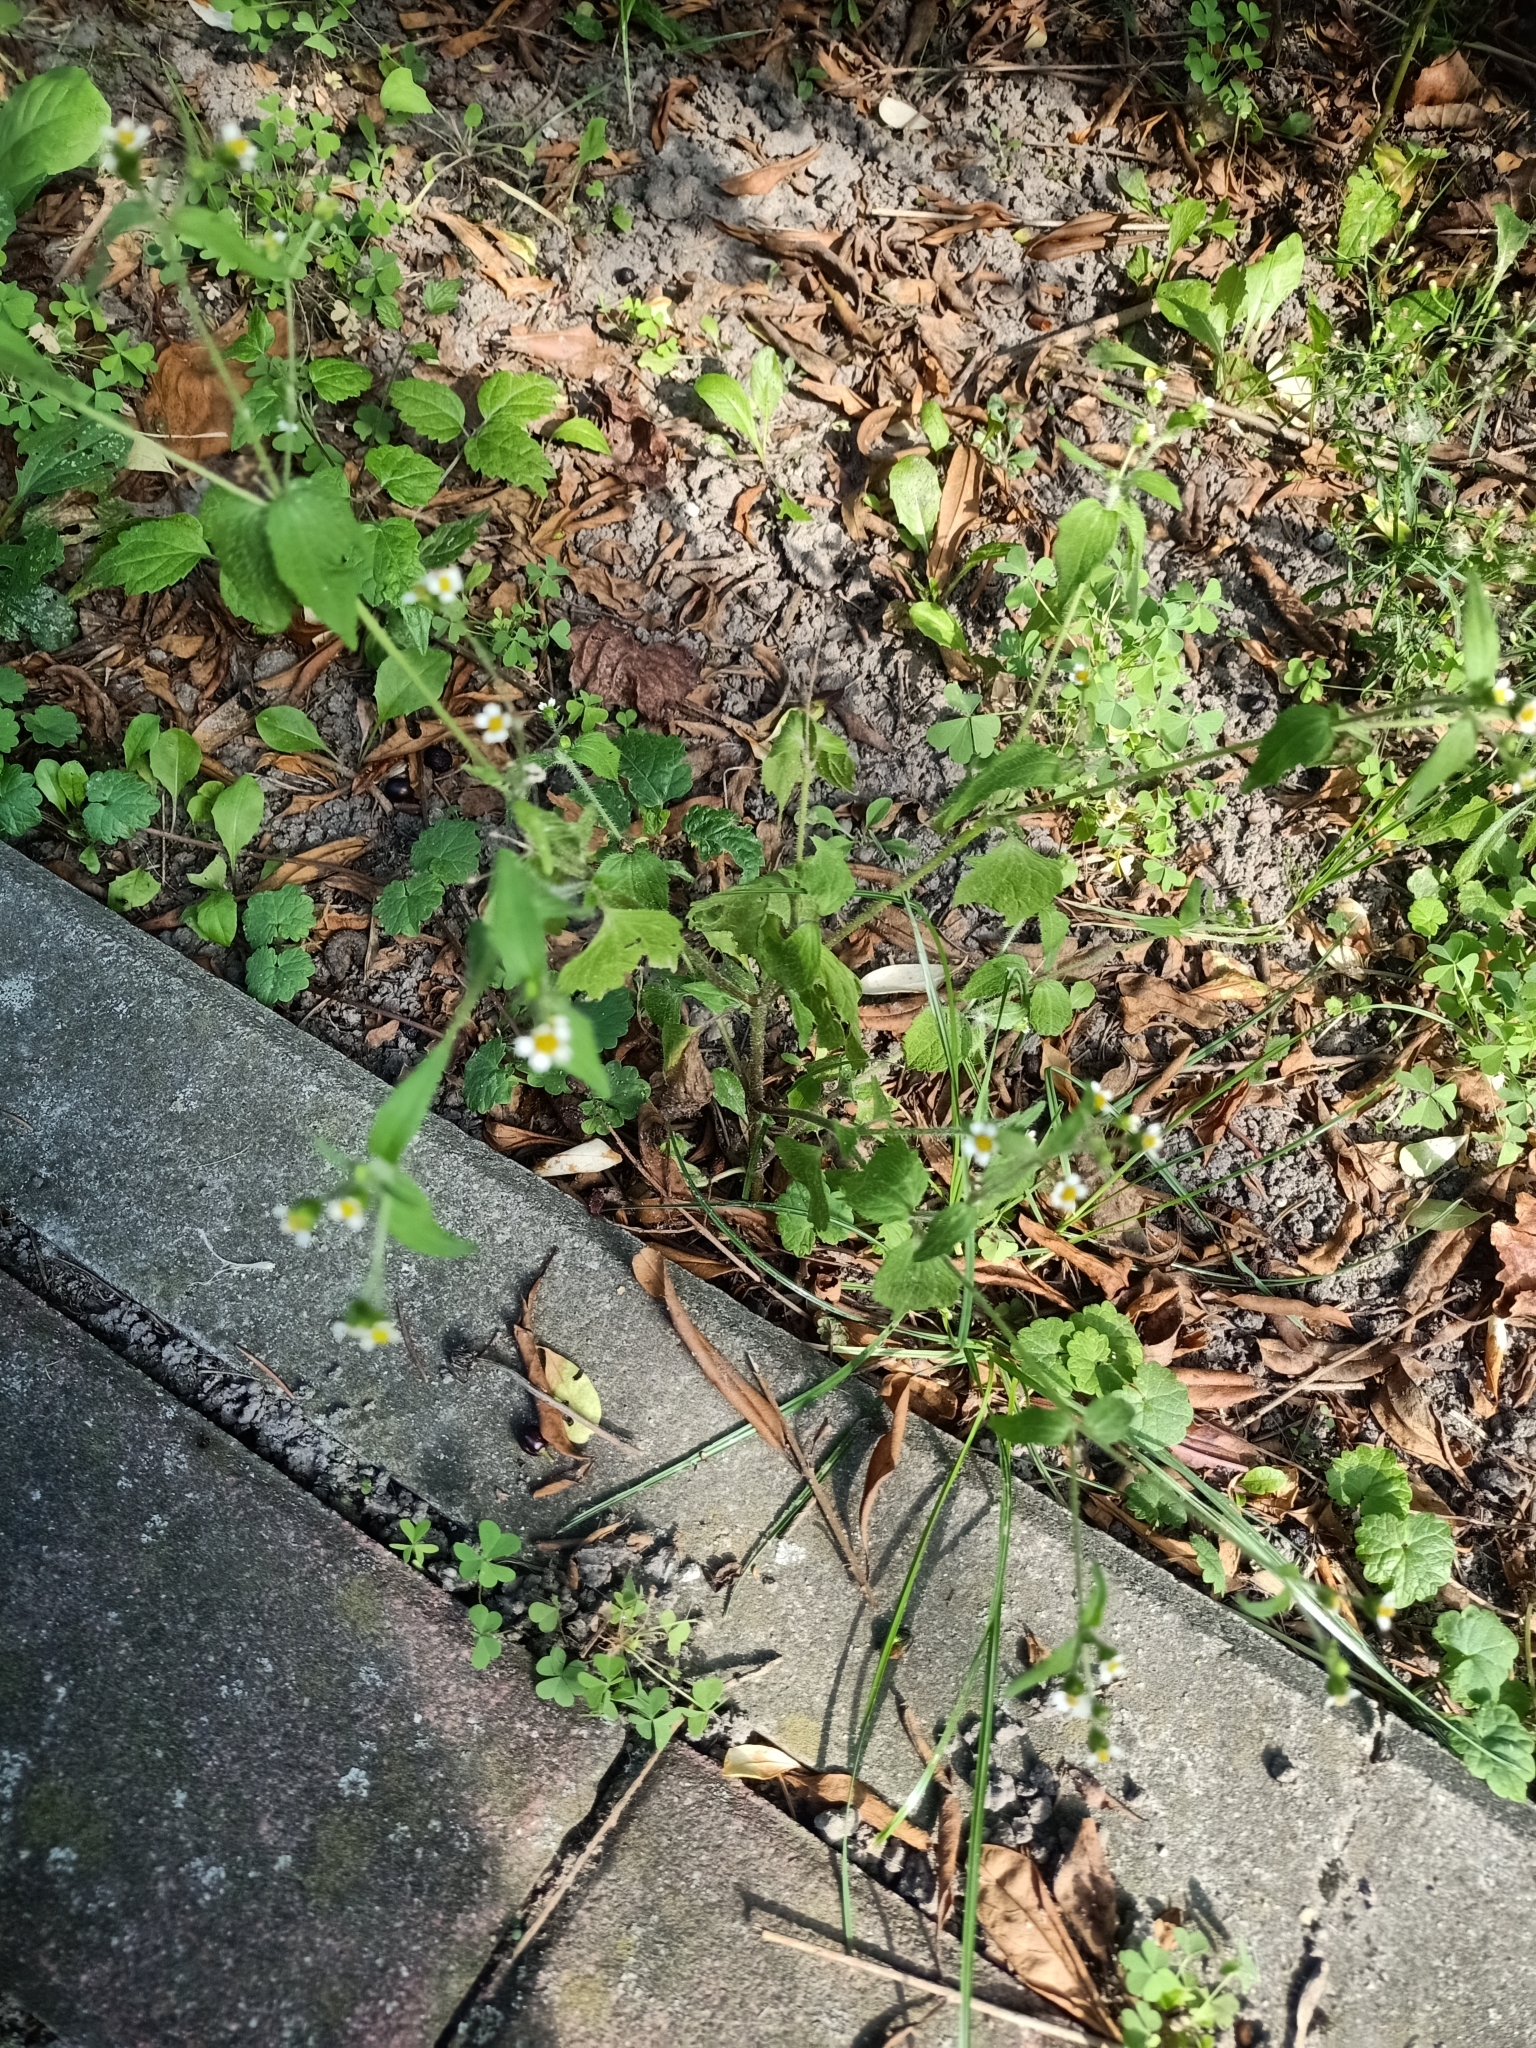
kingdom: Plantae
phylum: Tracheophyta
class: Magnoliopsida
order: Asterales
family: Asteraceae
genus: Galinsoga
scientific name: Galinsoga quadriradiata
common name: Shaggy soldier
